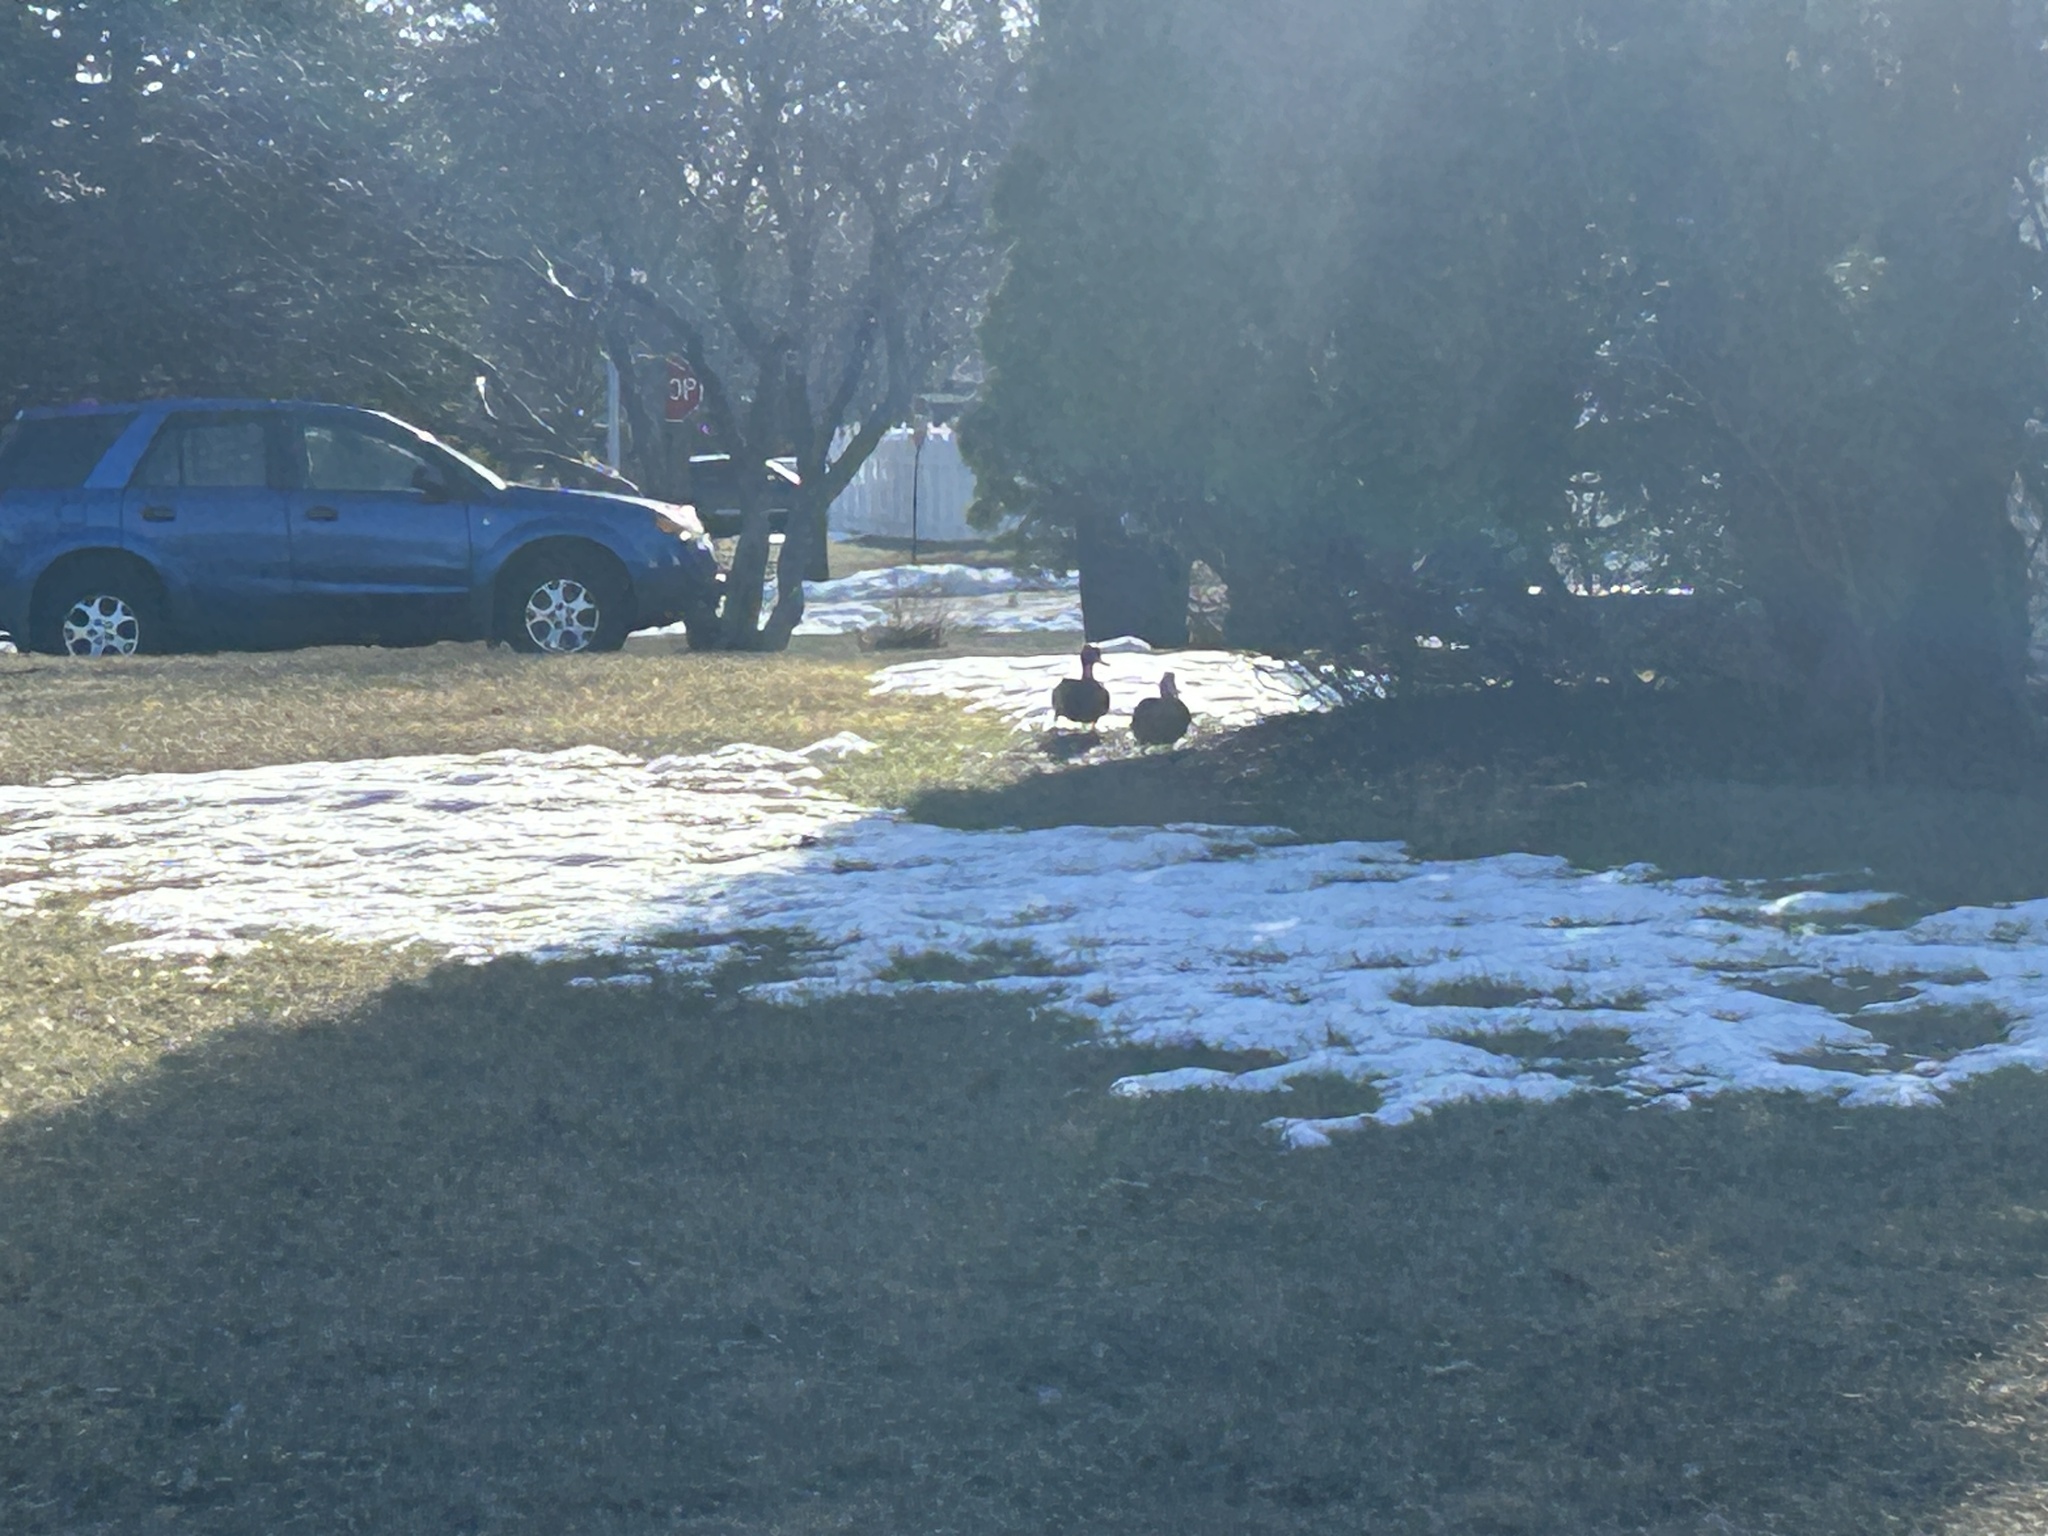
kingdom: Animalia
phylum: Chordata
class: Aves
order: Anseriformes
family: Anatidae
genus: Anas
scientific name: Anas platyrhynchos
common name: Mallard
